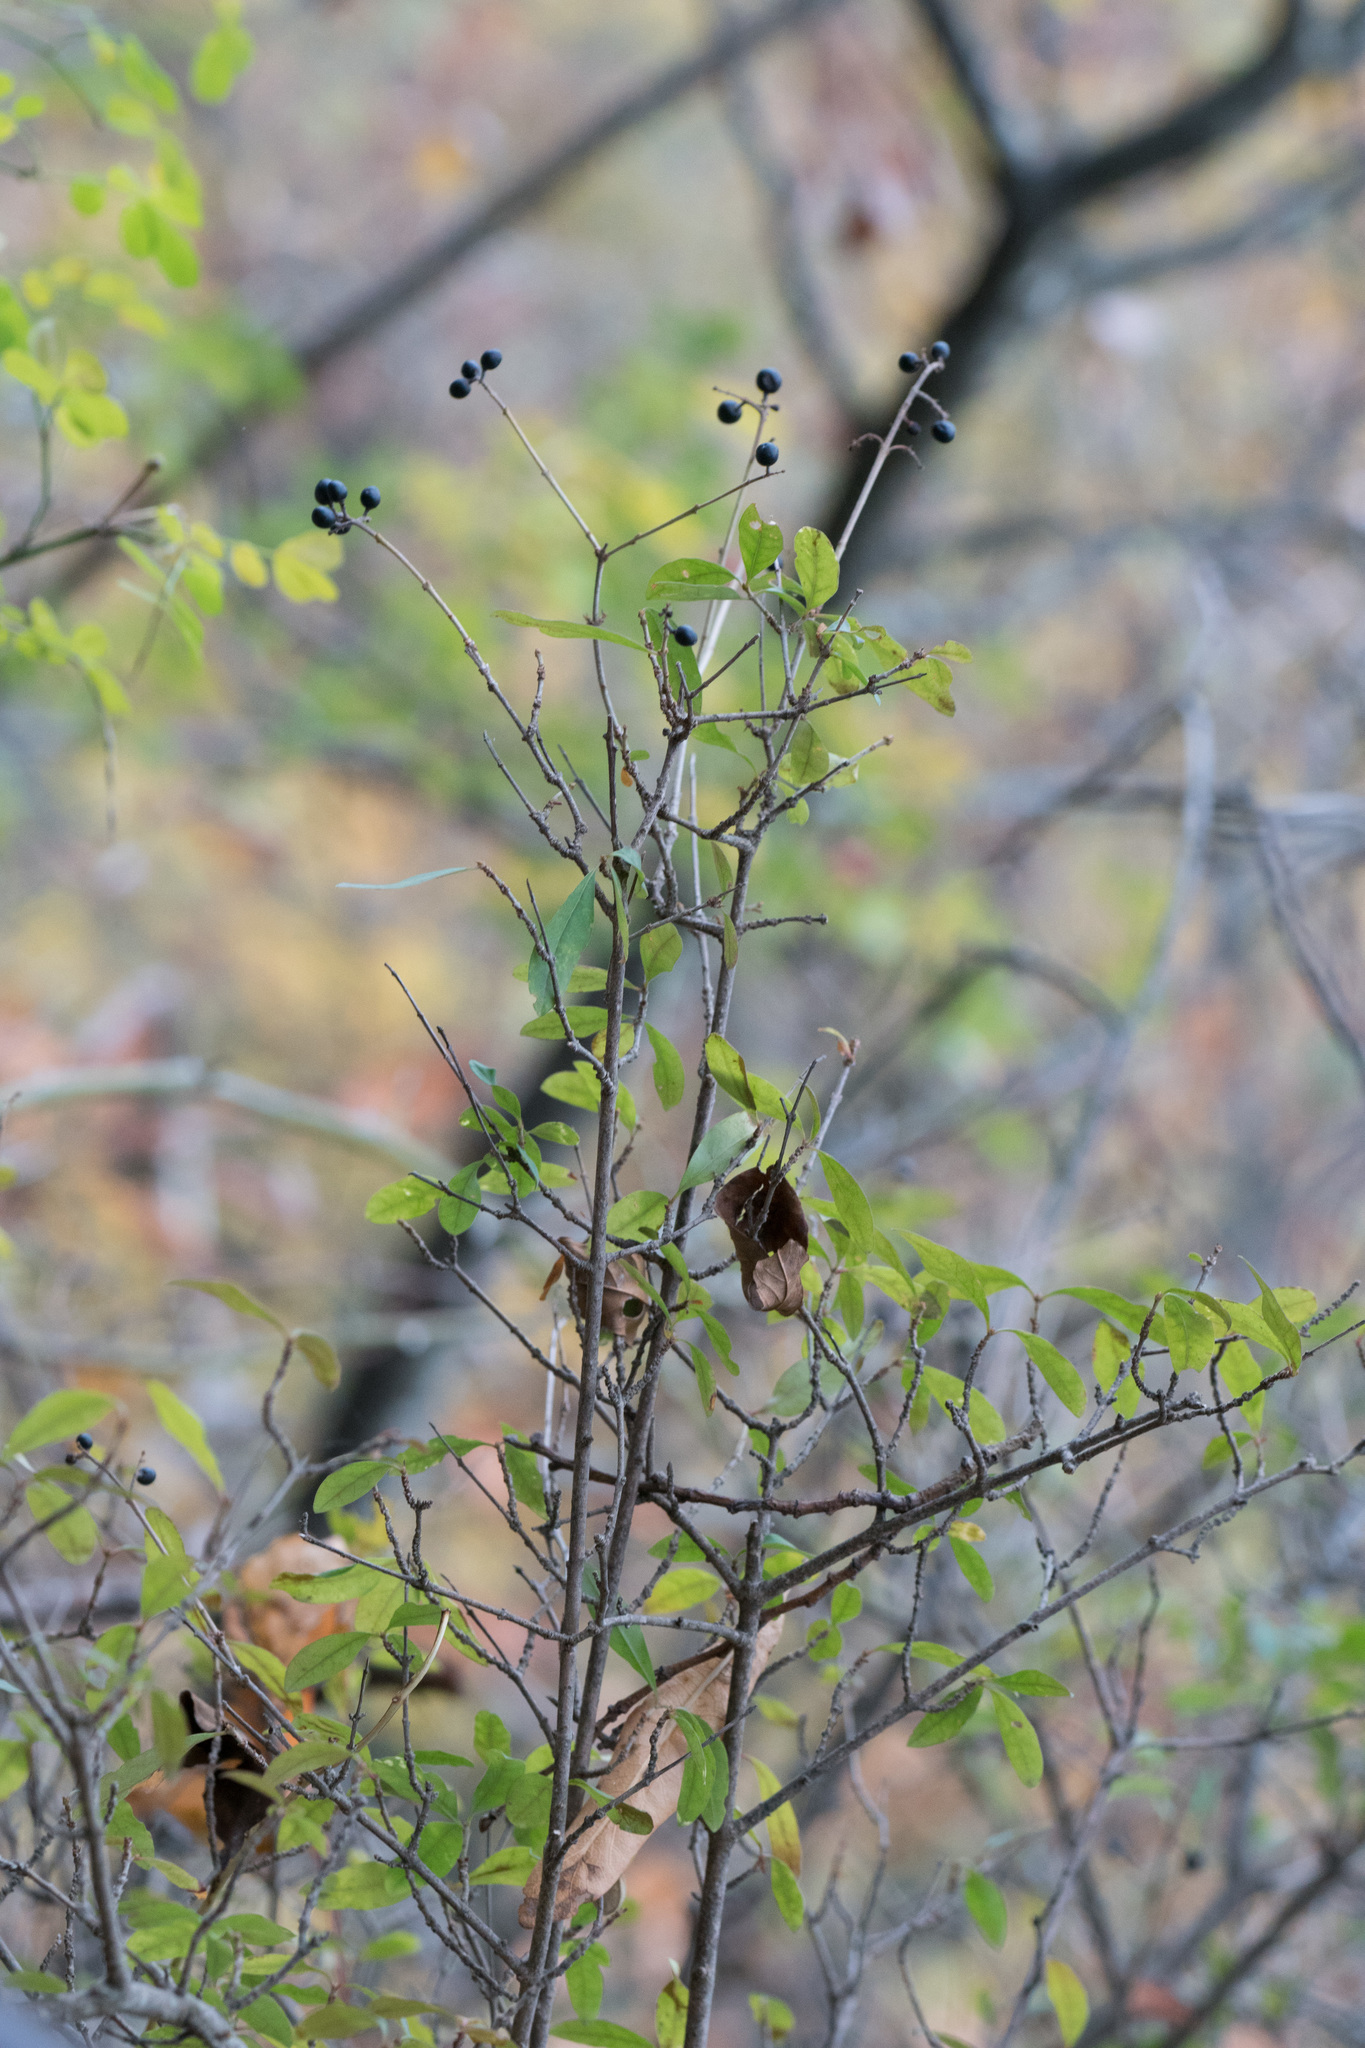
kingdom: Plantae
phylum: Tracheophyta
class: Magnoliopsida
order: Lamiales
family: Oleaceae
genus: Ligustrum
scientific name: Ligustrum vulgare
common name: Wild privet
